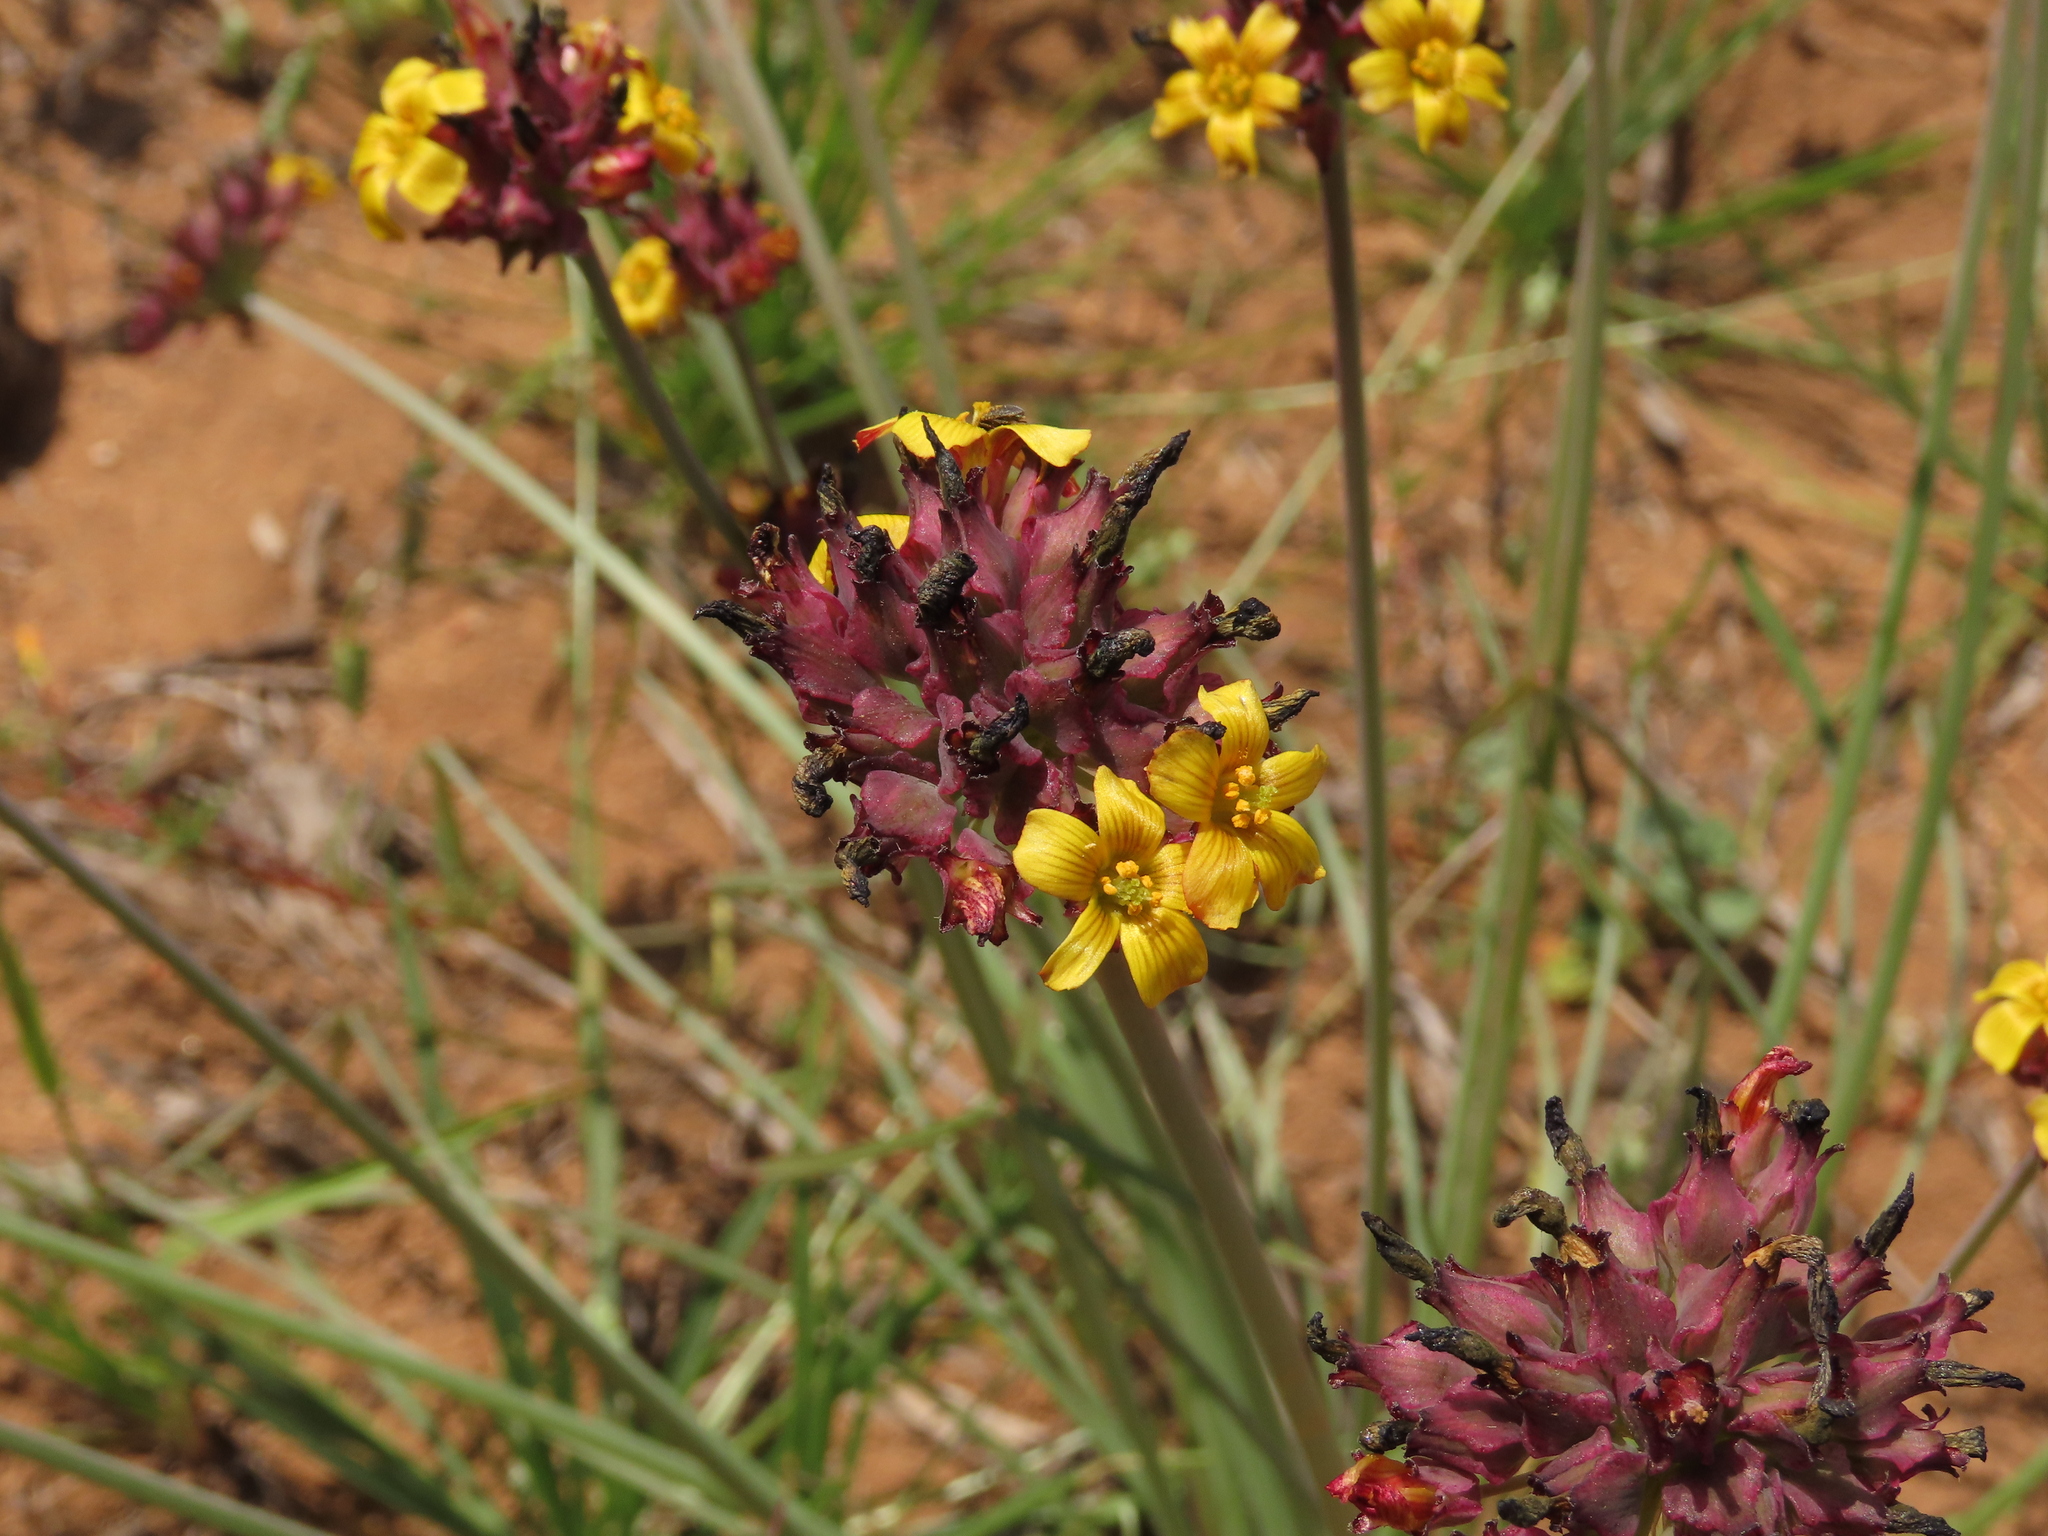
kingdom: Plantae
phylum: Tracheophyta
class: Magnoliopsida
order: Oxalidales
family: Oxalidaceae
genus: Oxalis
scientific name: Oxalis tortuosa
